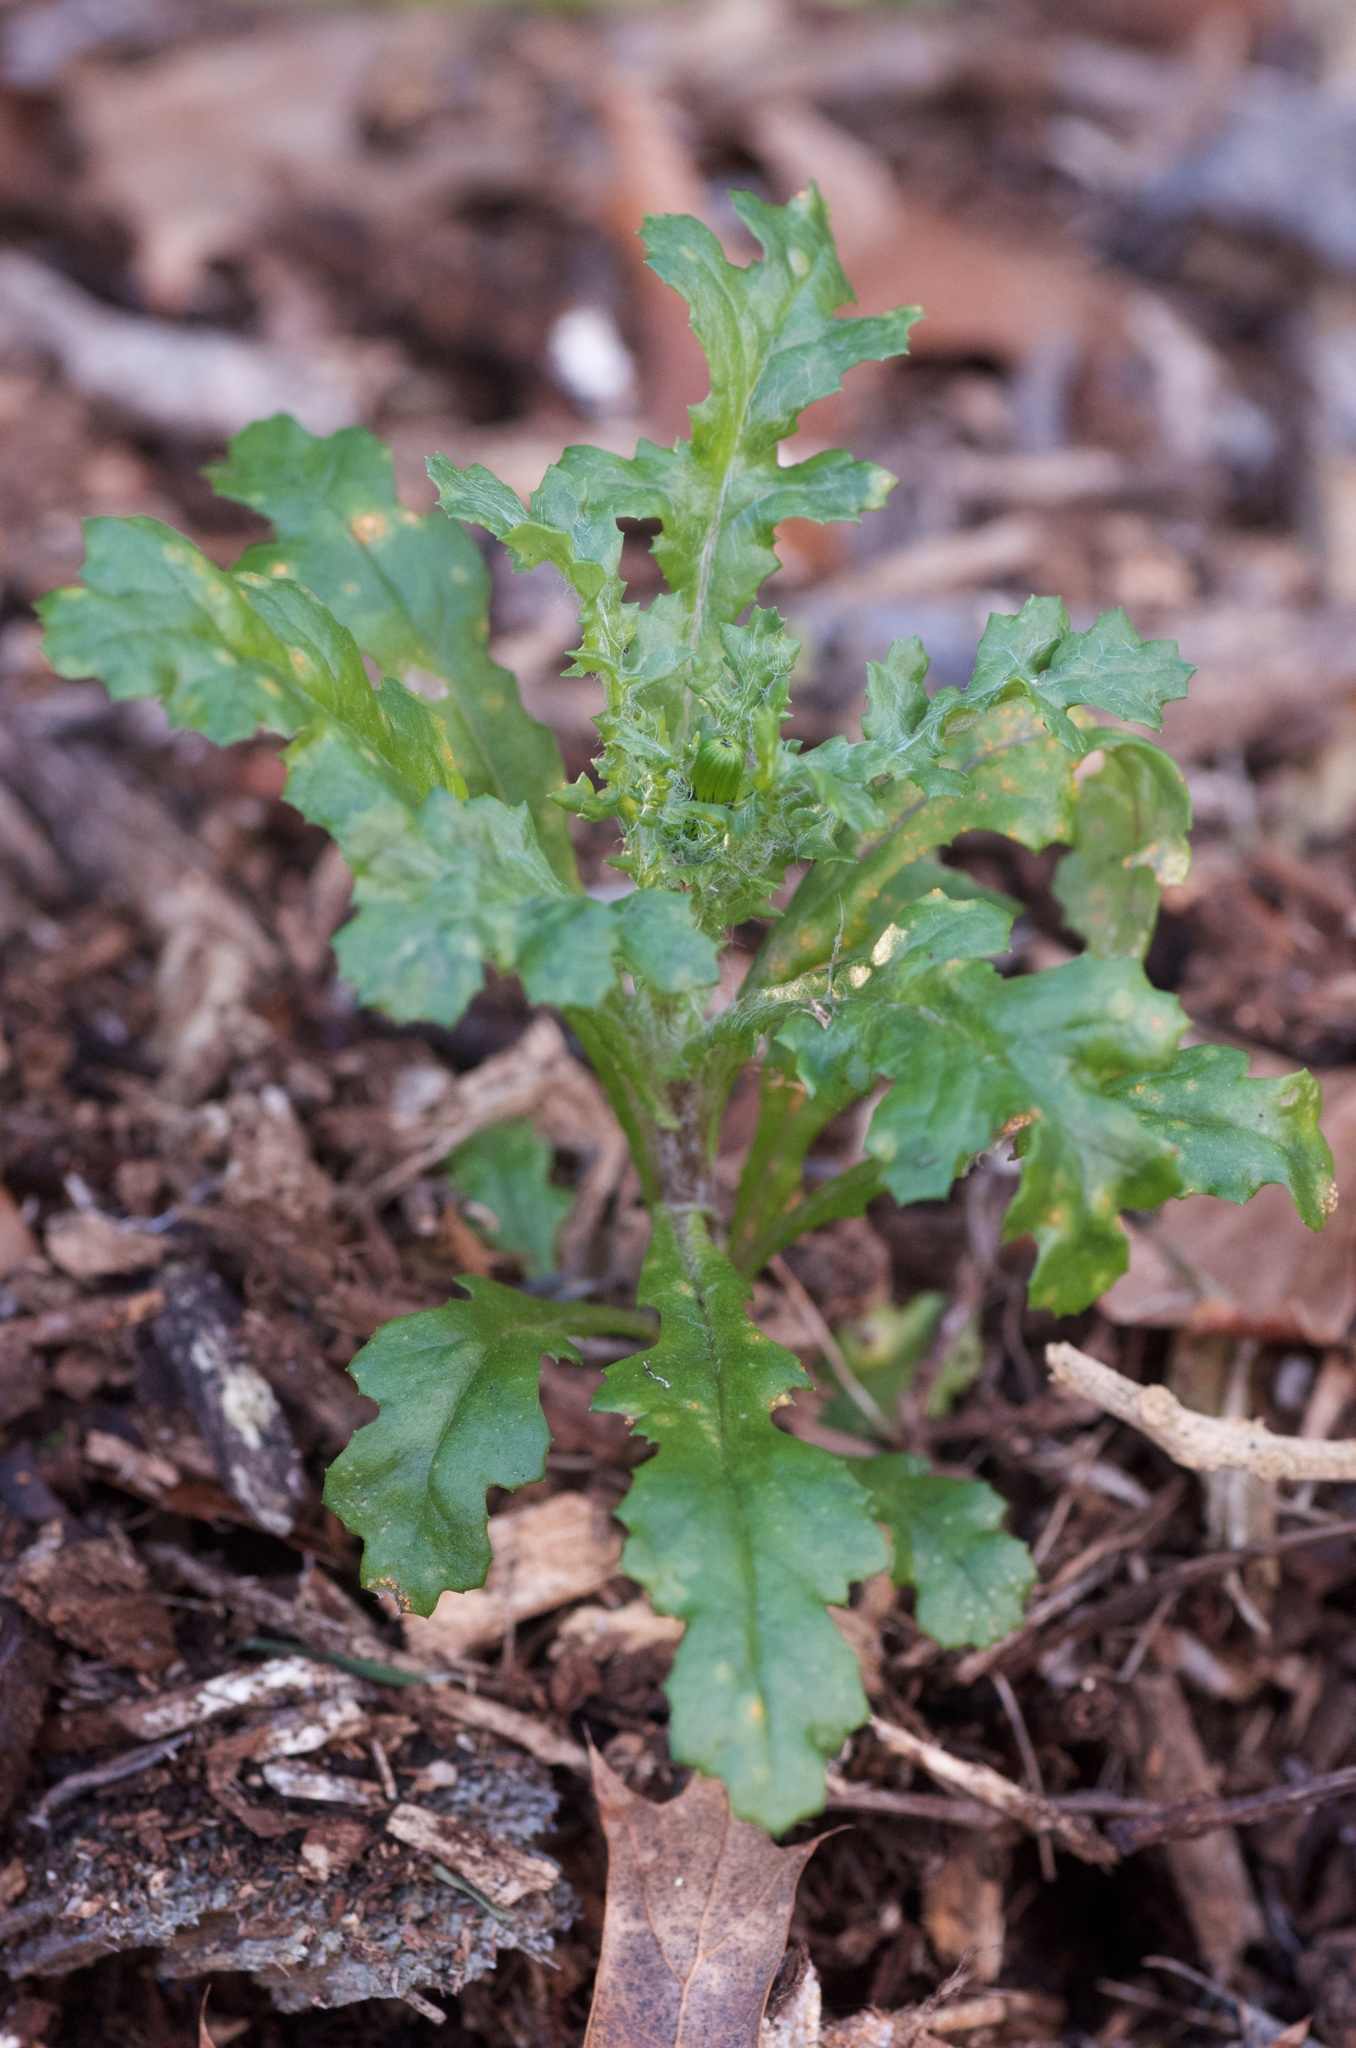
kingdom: Plantae
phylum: Tracheophyta
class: Magnoliopsida
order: Asterales
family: Asteraceae
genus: Senecio
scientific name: Senecio vulgaris
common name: Old-man-in-the-spring
